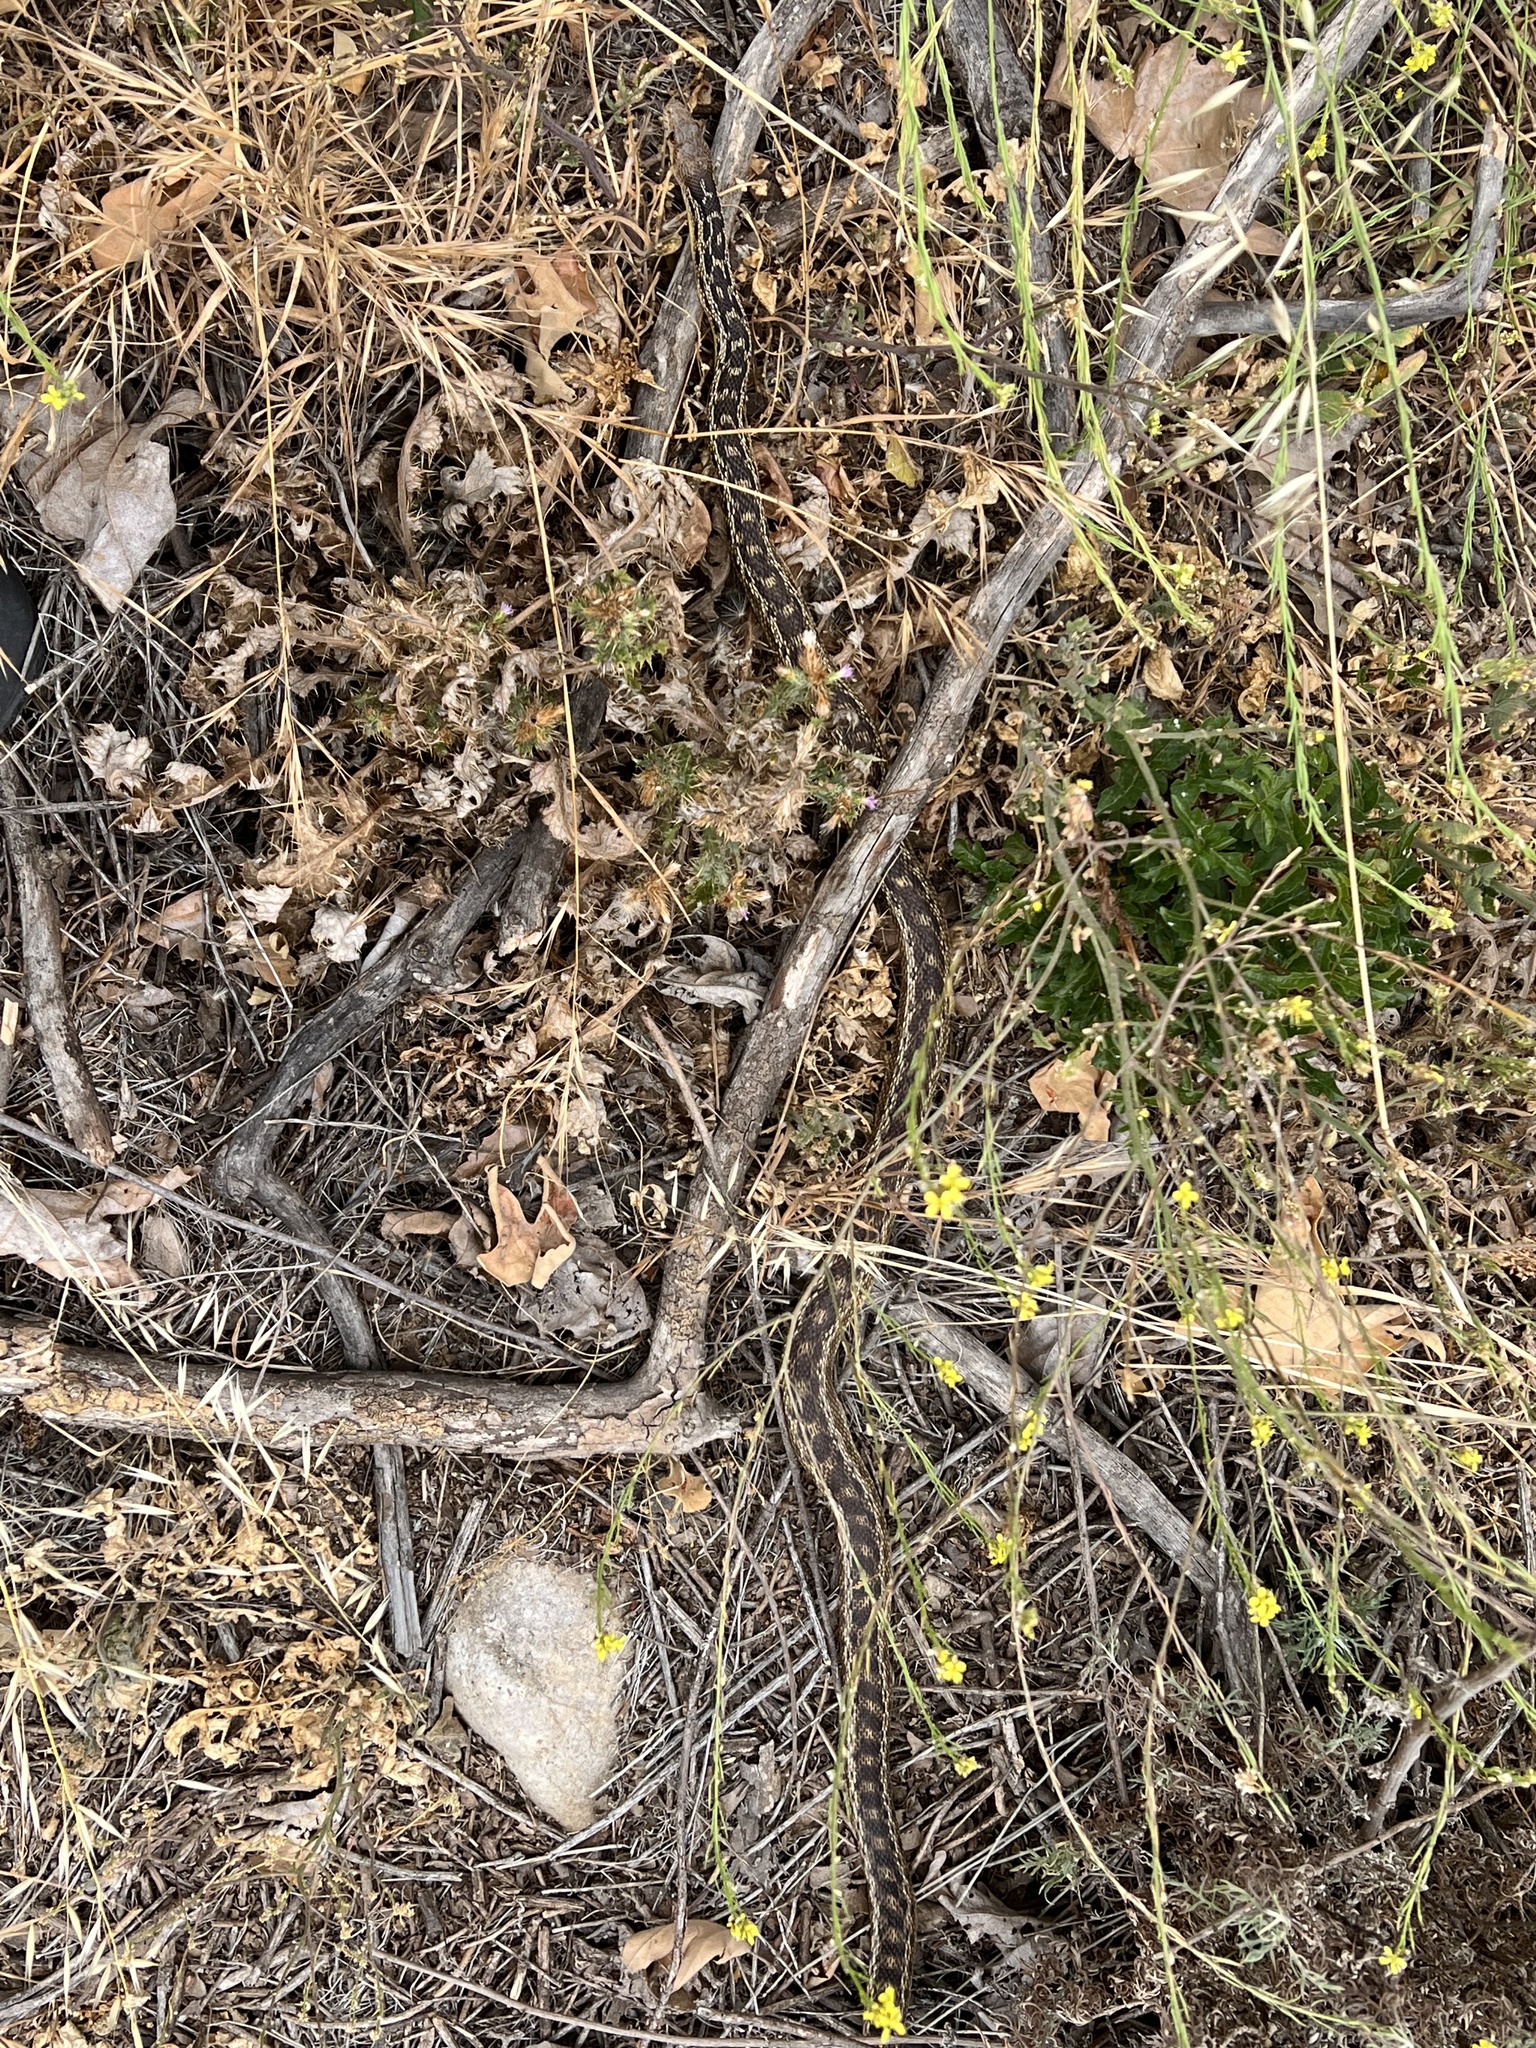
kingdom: Animalia
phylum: Chordata
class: Squamata
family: Colubridae
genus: Pituophis
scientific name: Pituophis catenifer
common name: Gopher snake
